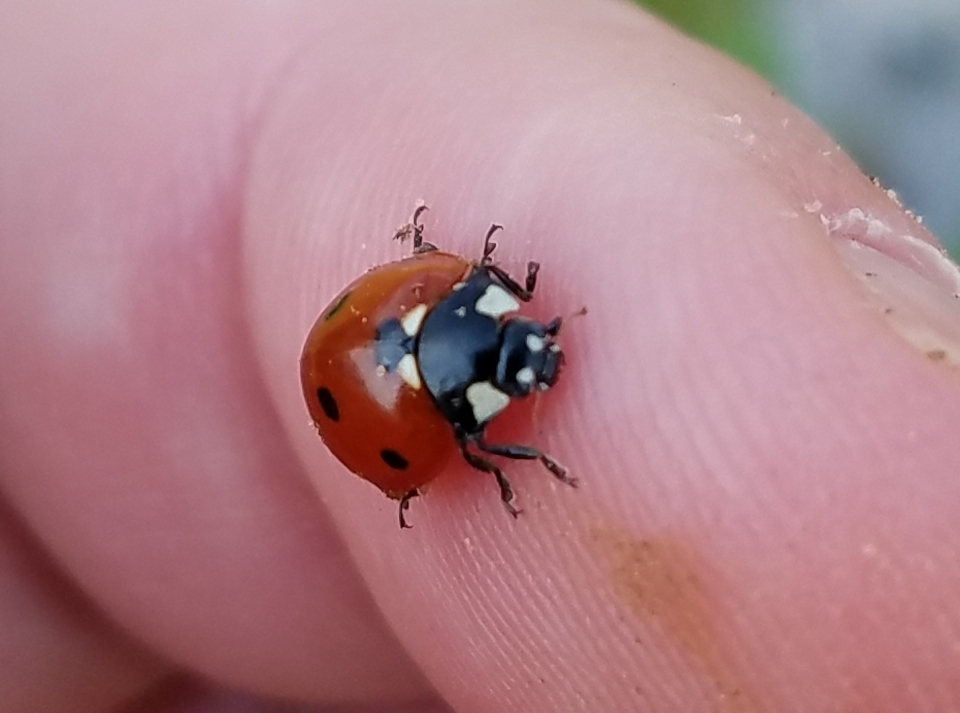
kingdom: Animalia
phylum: Arthropoda
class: Insecta
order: Coleoptera
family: Coccinellidae
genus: Coccinella
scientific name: Coccinella septempunctata
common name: Sevenspotted lady beetle
